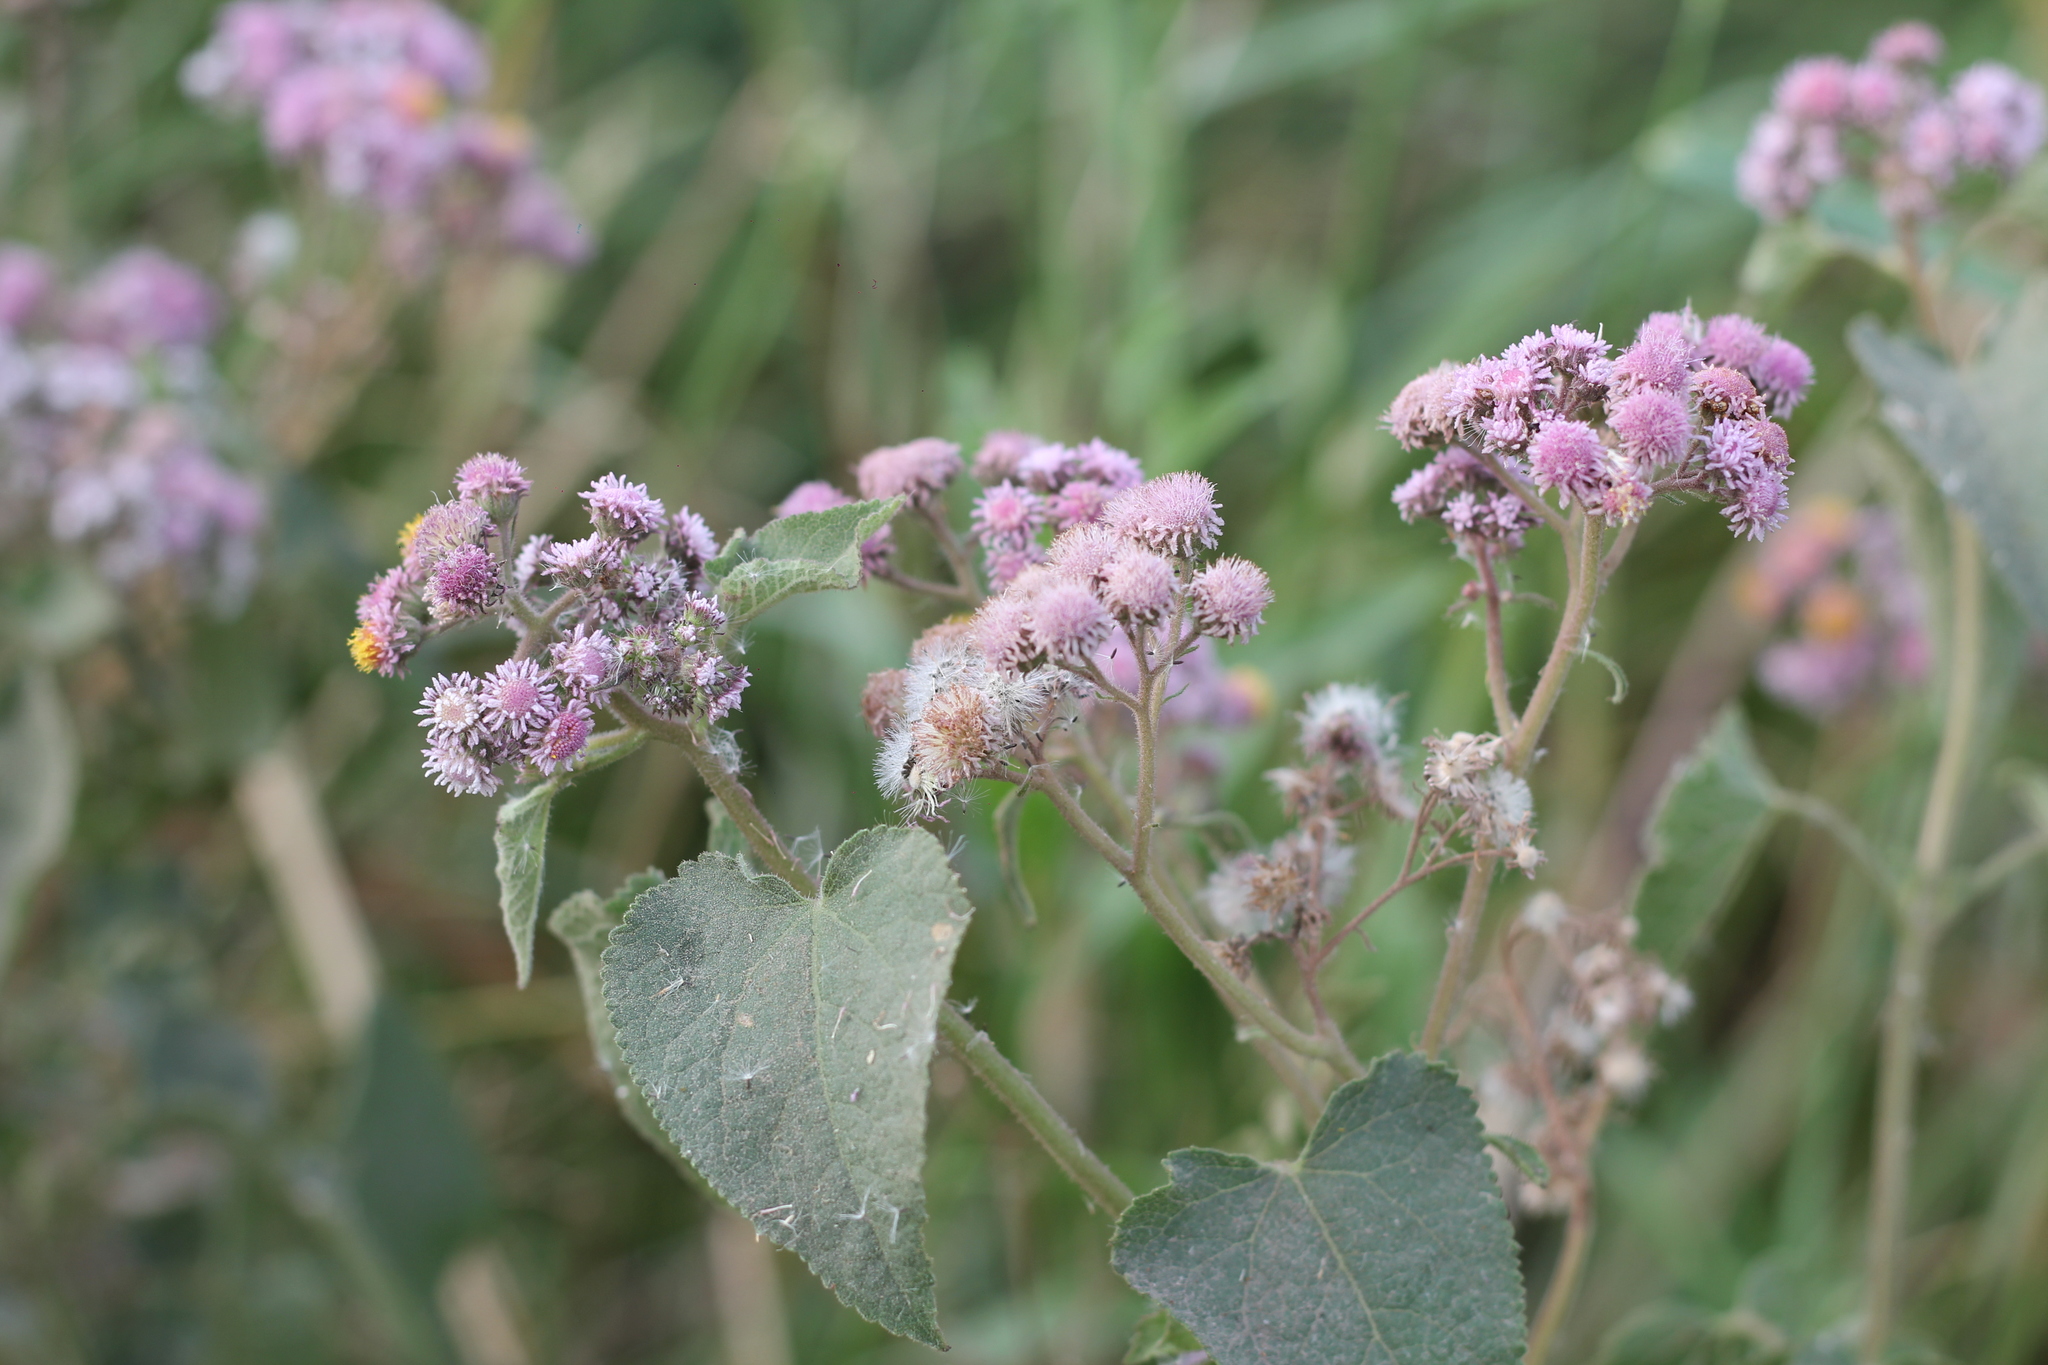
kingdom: Plantae
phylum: Tracheophyta
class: Magnoliopsida
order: Asterales
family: Asteraceae
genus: Urolepis
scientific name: Urolepis hecatantha
